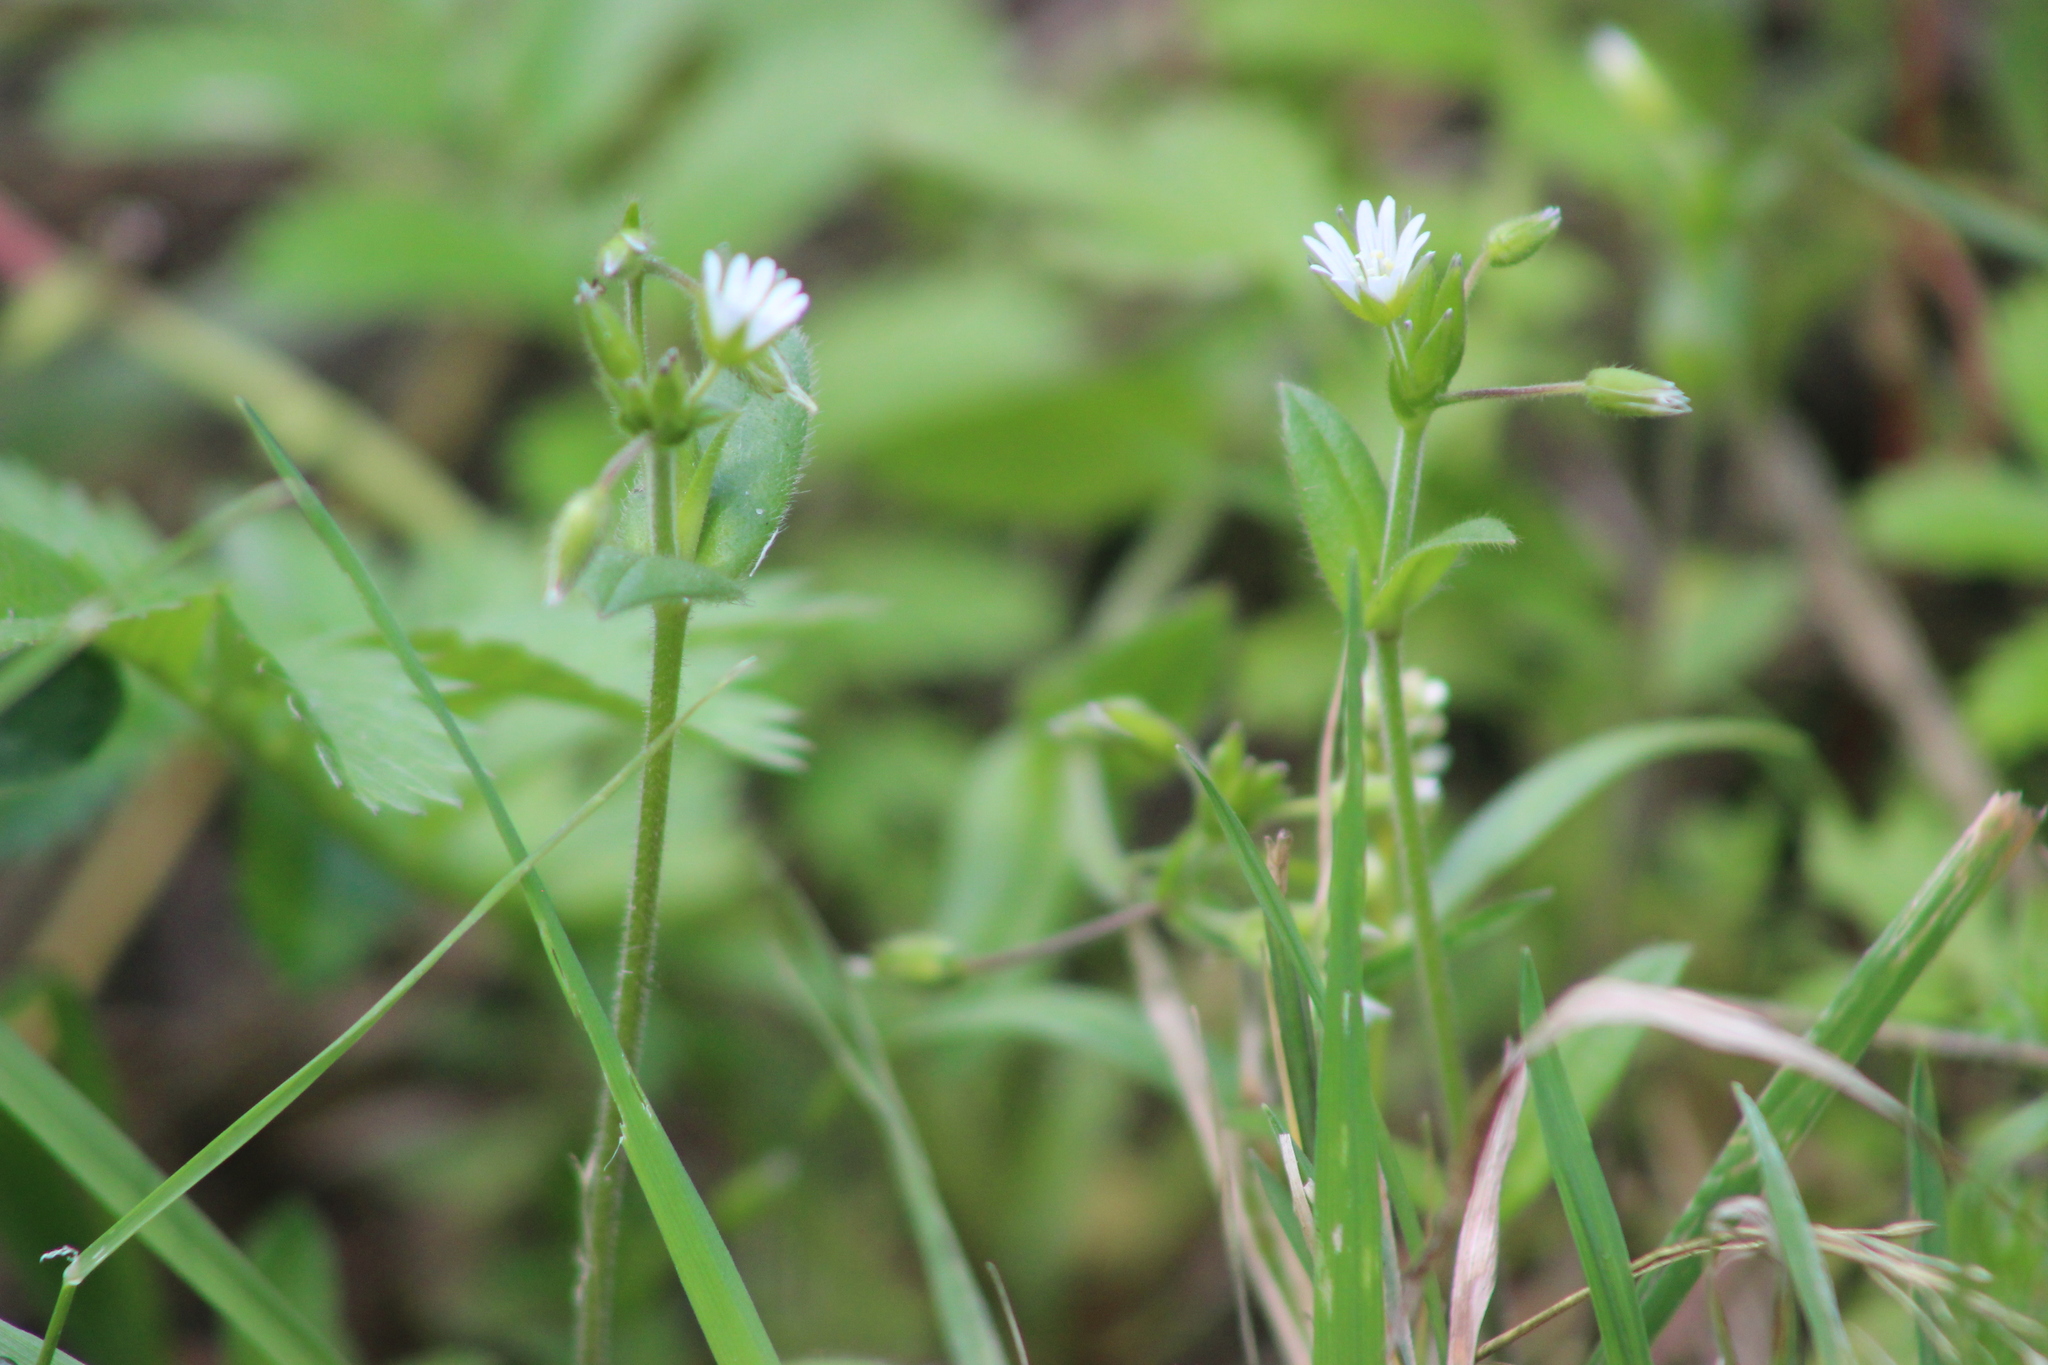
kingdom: Plantae
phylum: Tracheophyta
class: Magnoliopsida
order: Caryophyllales
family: Caryophyllaceae
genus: Cerastium
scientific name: Cerastium holosteoides
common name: Big chickweed
